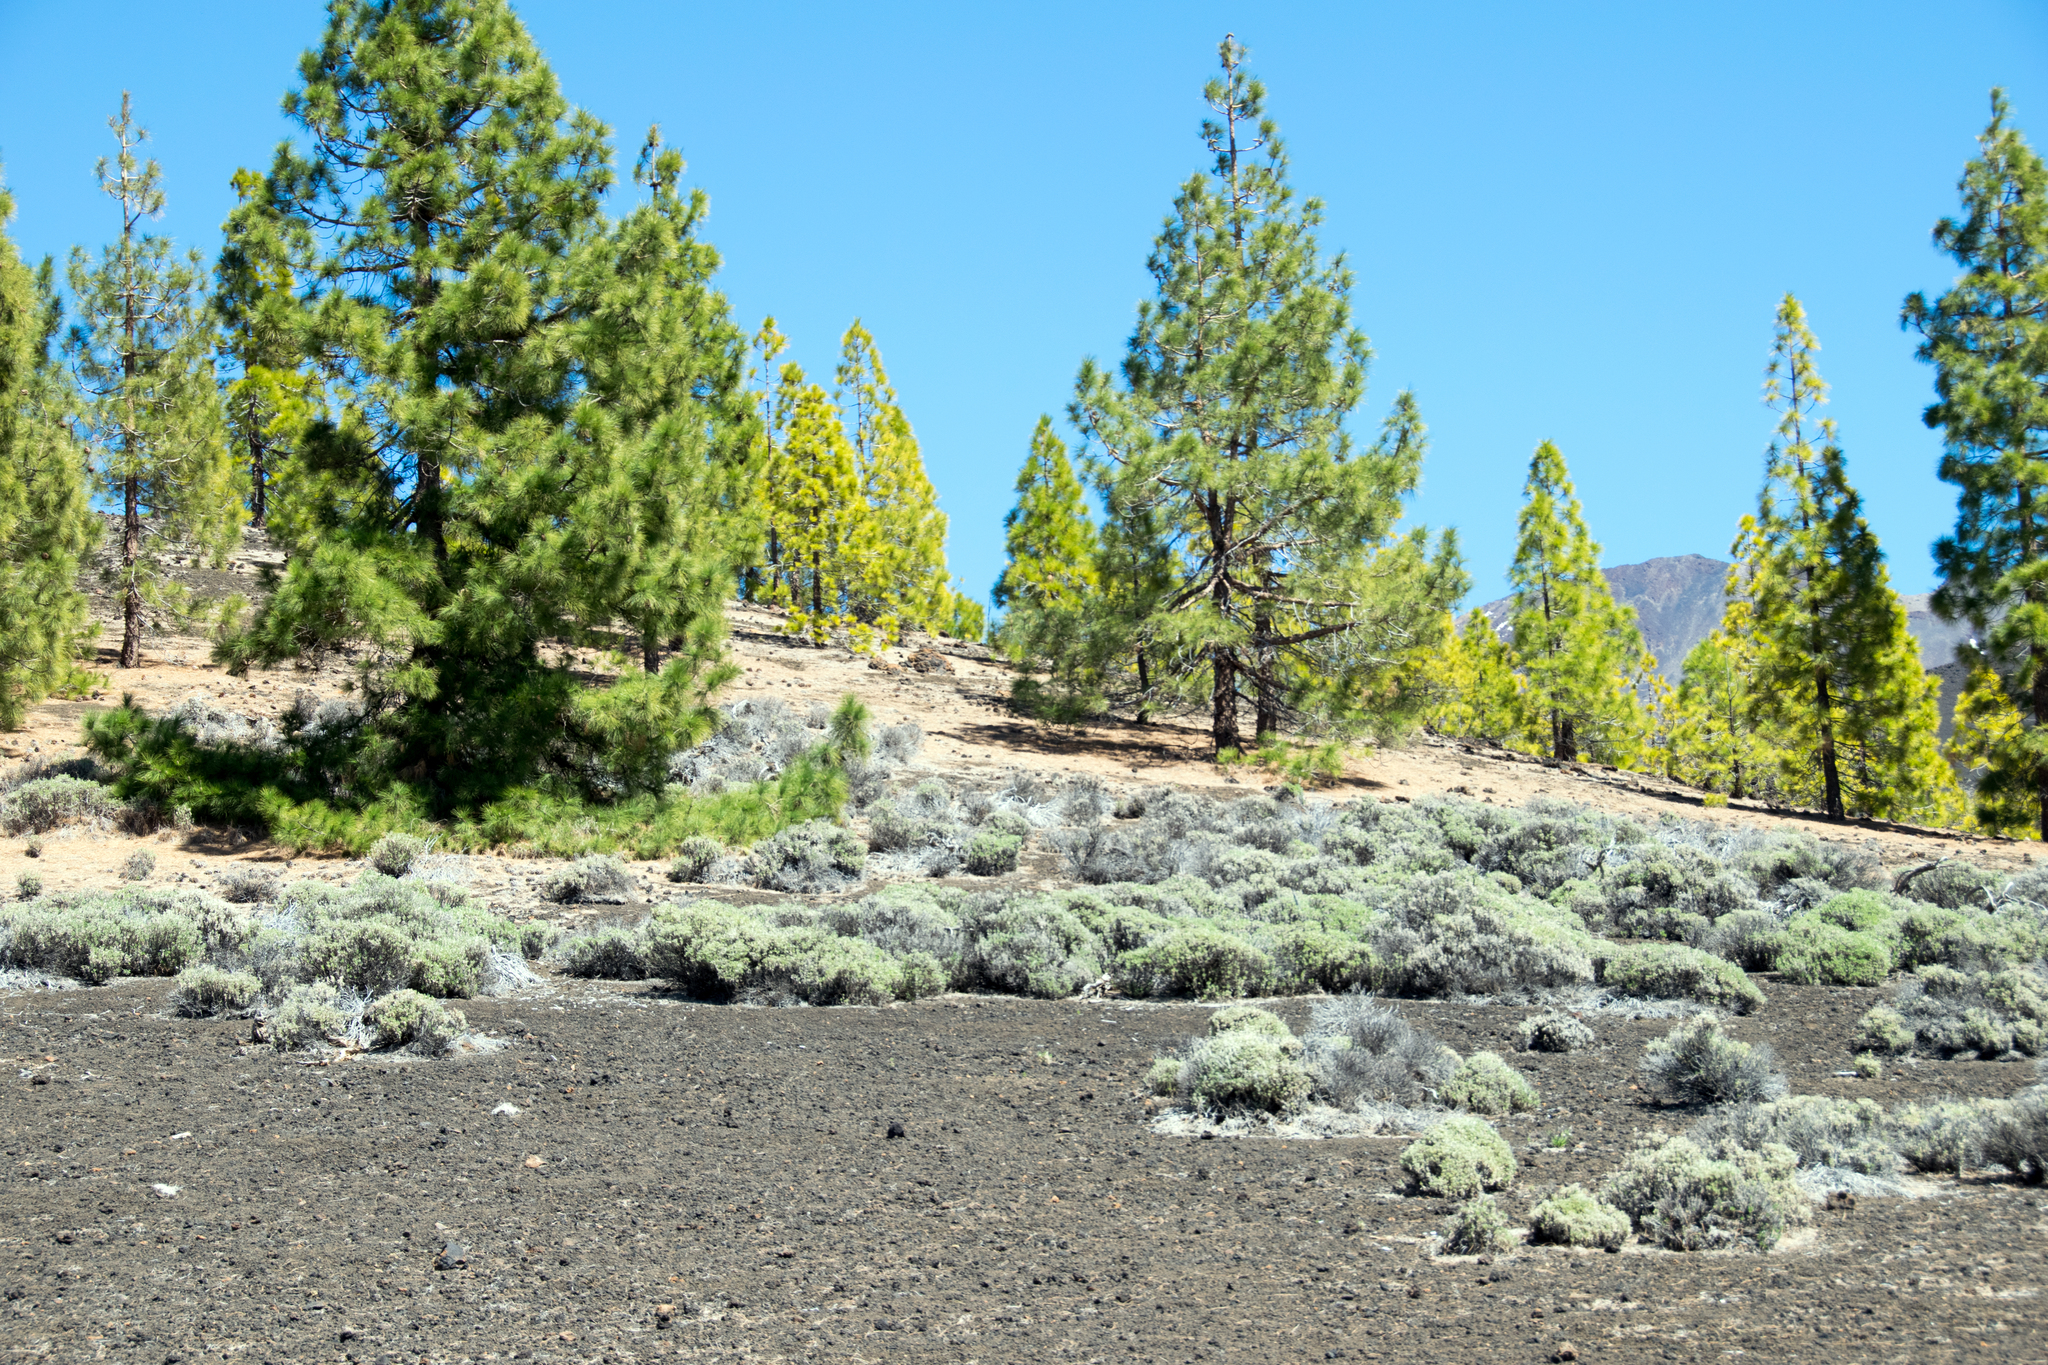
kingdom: Plantae
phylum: Tracheophyta
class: Magnoliopsida
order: Dipsacales
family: Caprifoliaceae
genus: Pterocephalus
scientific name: Pterocephalus lasiospermus
